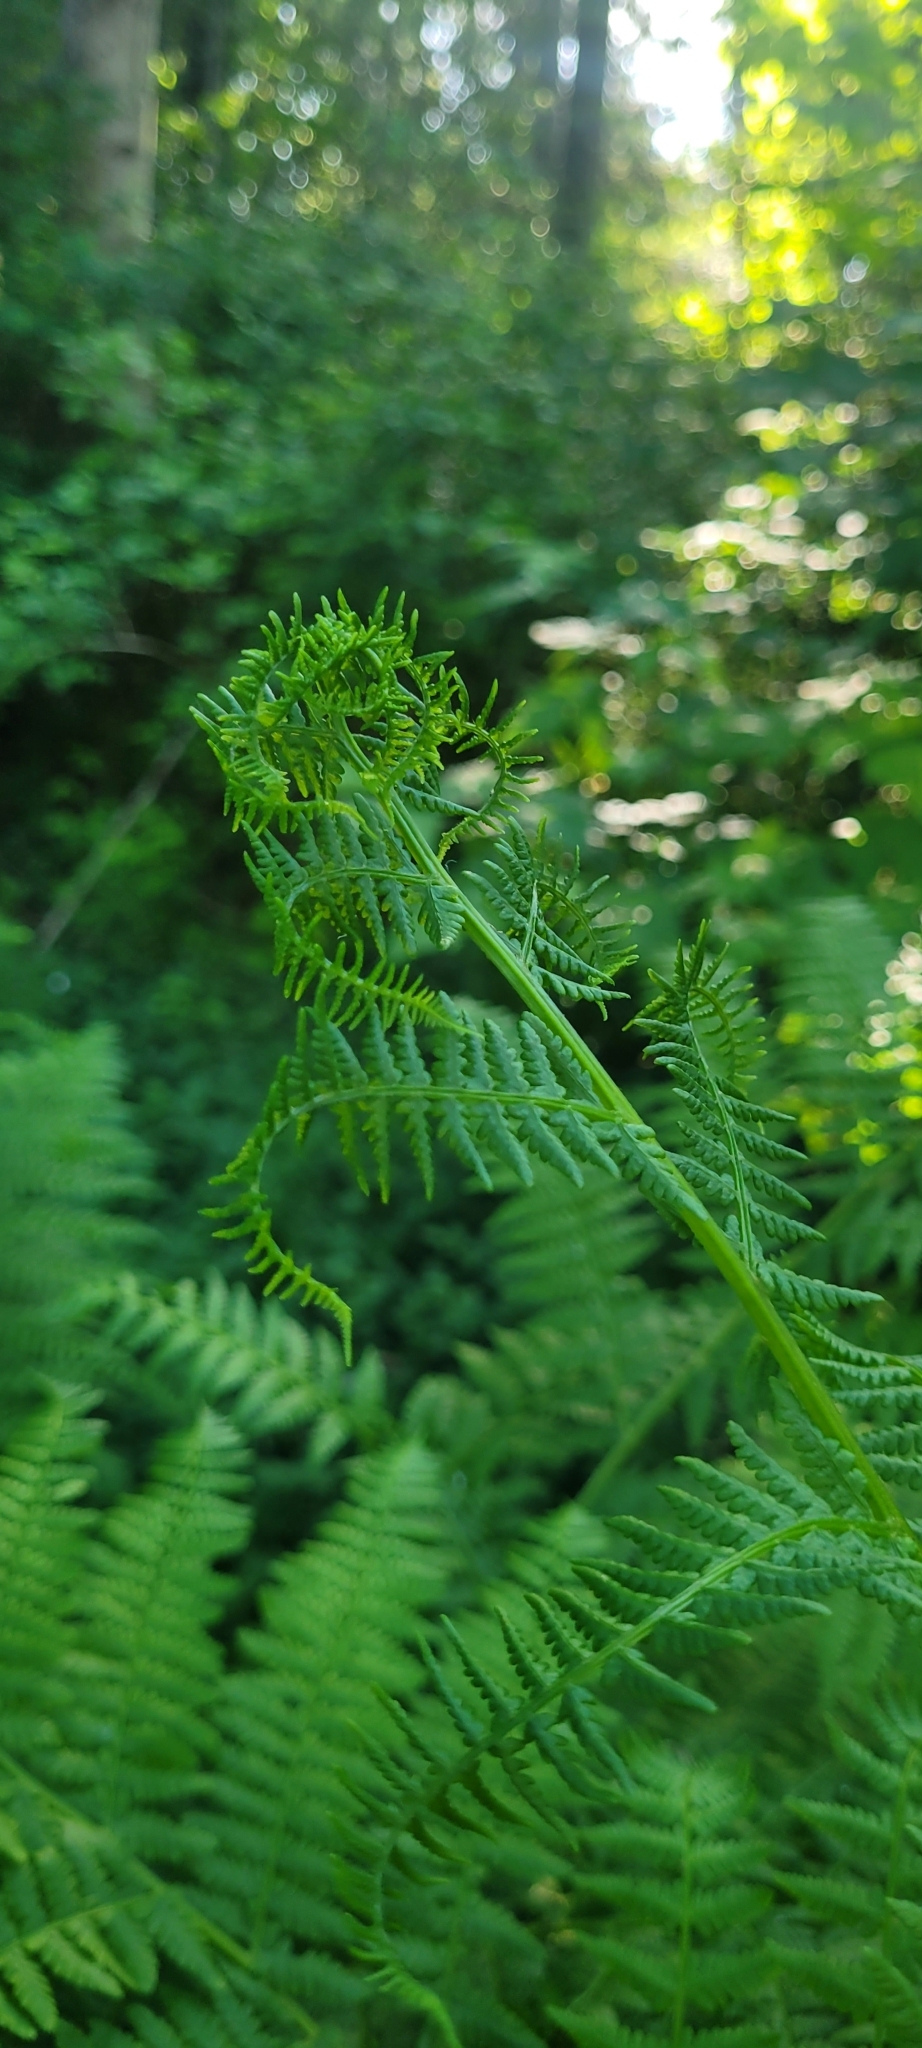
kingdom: Plantae
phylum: Tracheophyta
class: Polypodiopsida
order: Polypodiales
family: Athyriaceae
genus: Athyrium
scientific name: Athyrium filix-femina
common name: Lady fern
